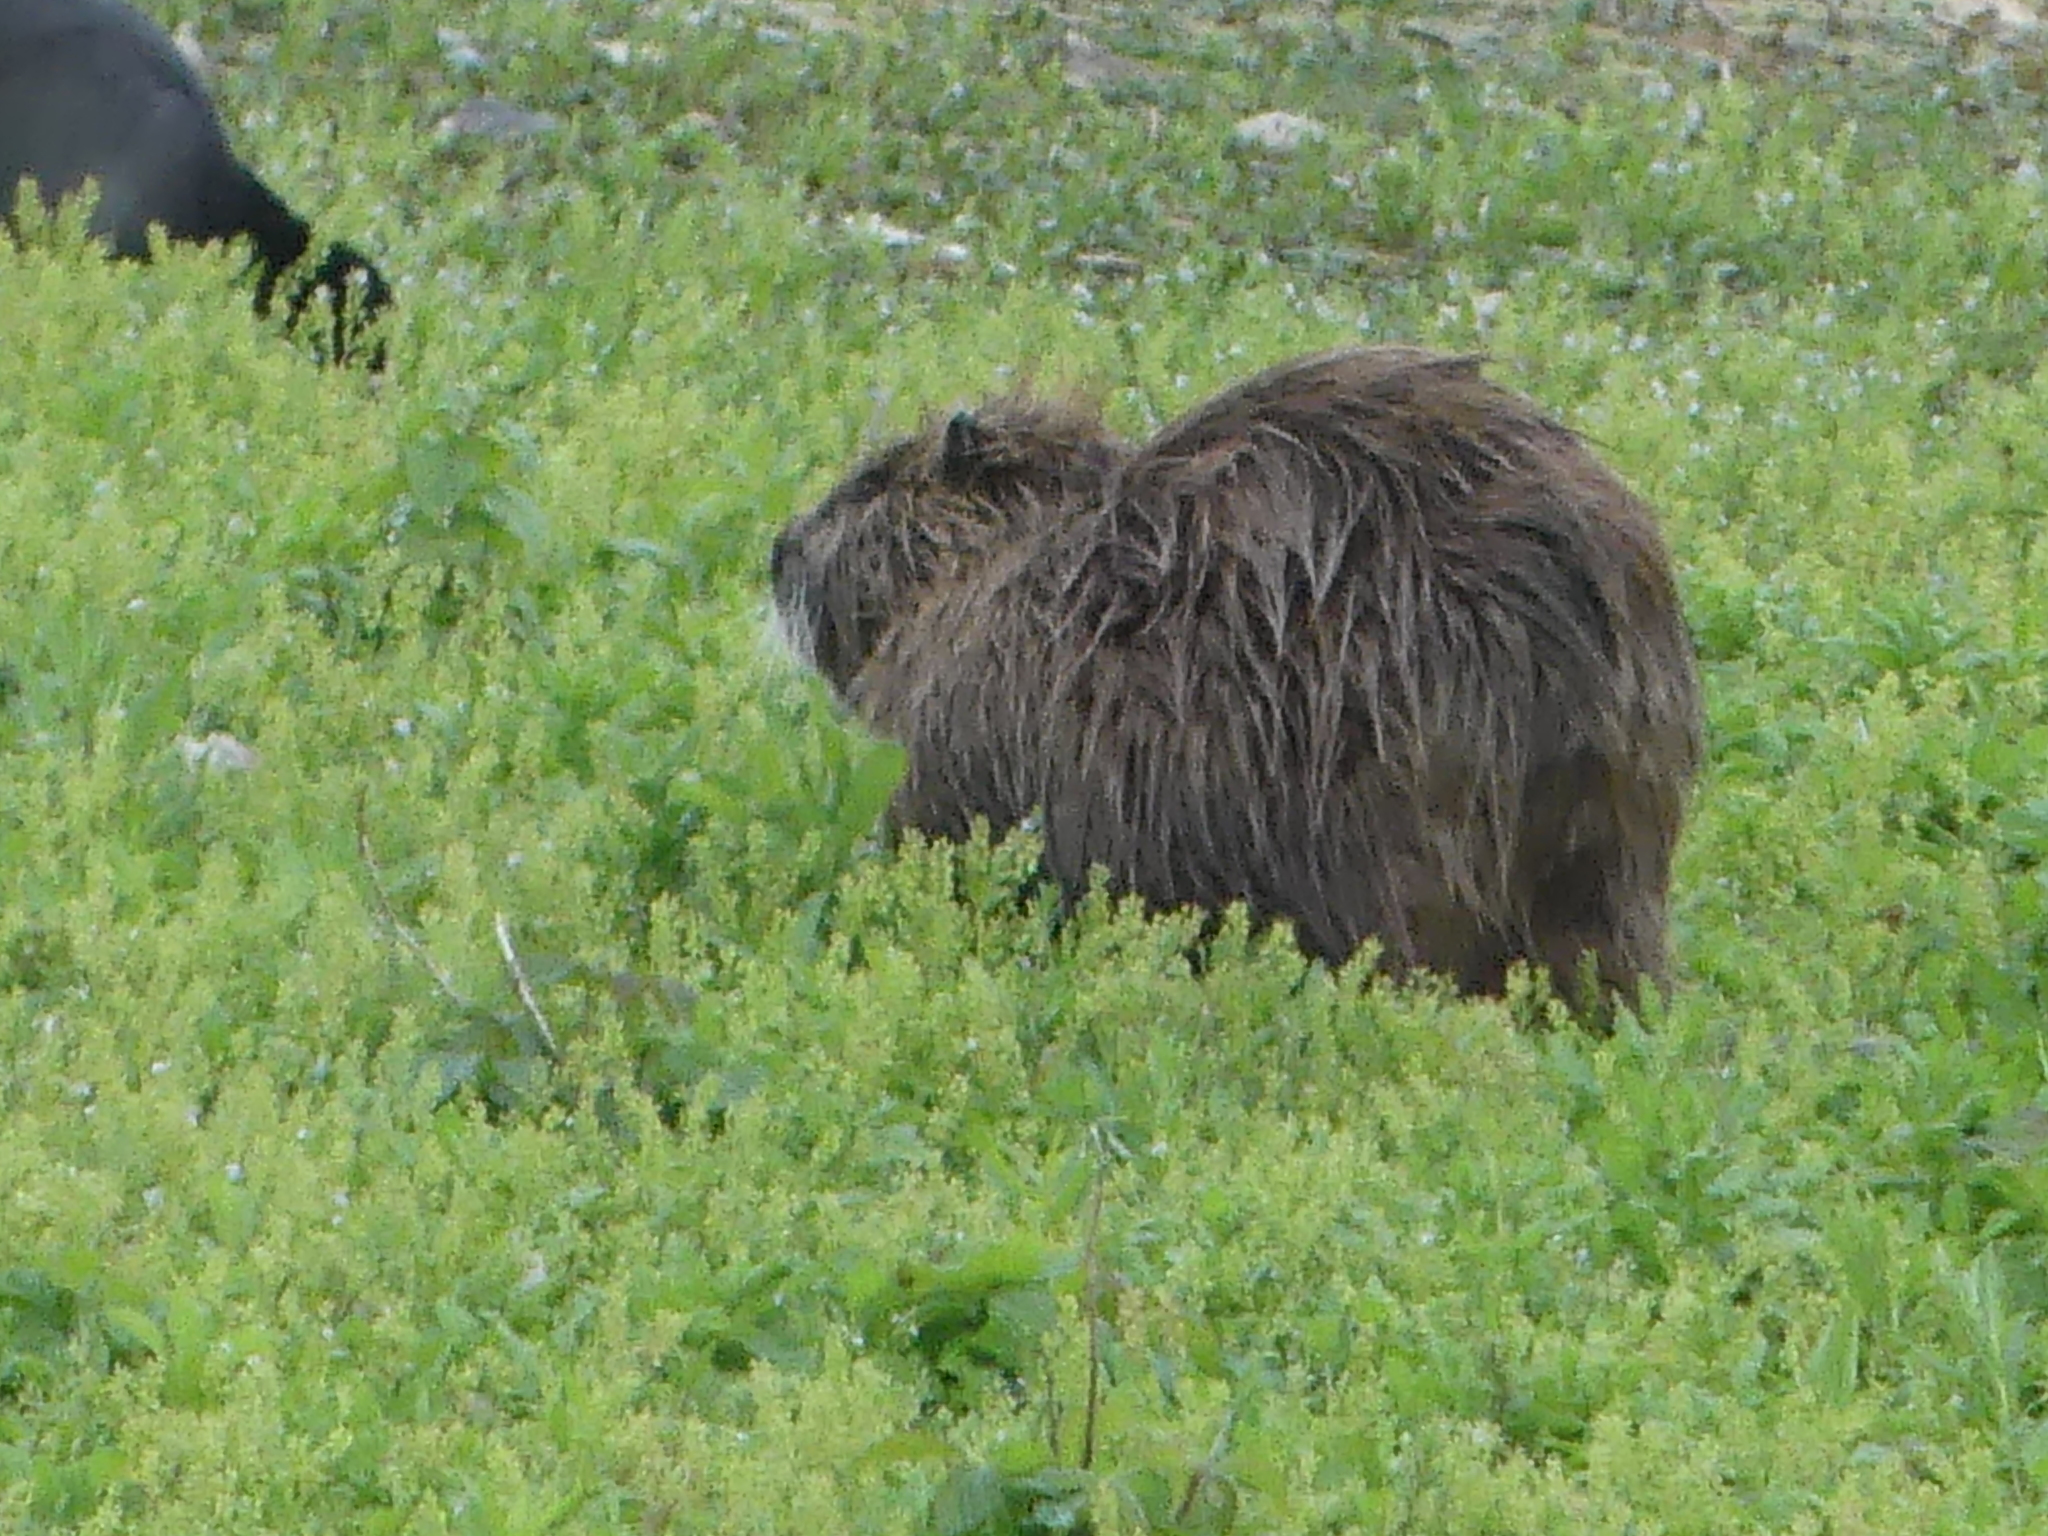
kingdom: Animalia
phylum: Chordata
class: Mammalia
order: Rodentia
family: Myocastoridae
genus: Myocastor
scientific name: Myocastor coypus
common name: Coypu
